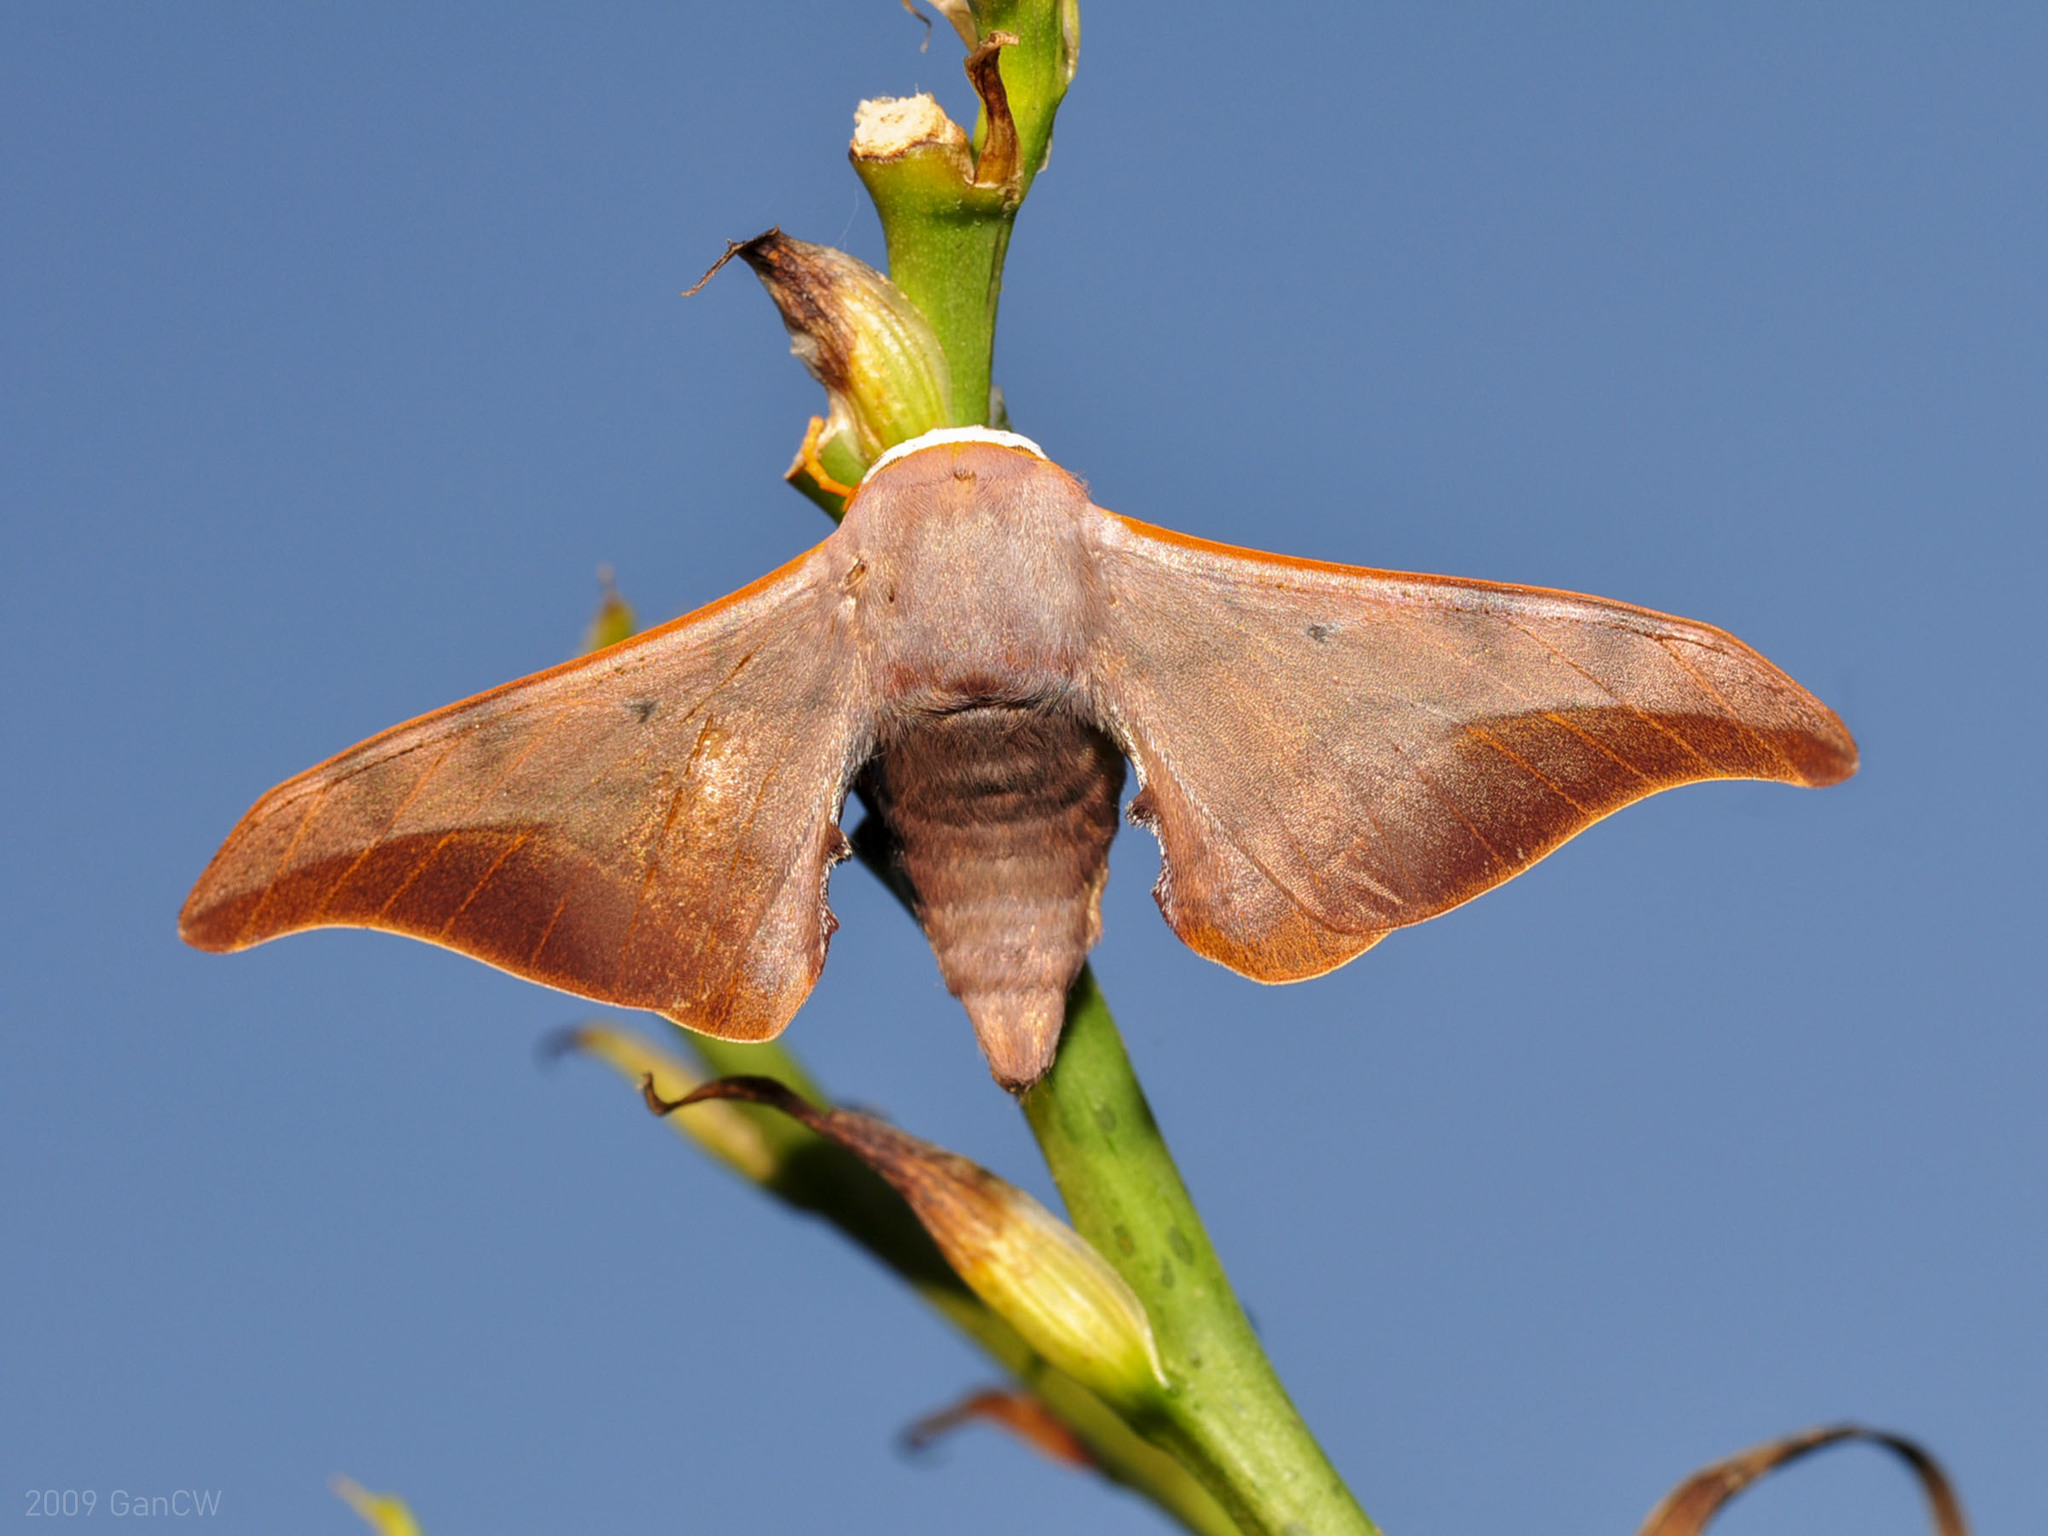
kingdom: Animalia
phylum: Arthropoda
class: Insecta
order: Lepidoptera
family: Endromidae
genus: Comparmustilia
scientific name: Comparmustilia
